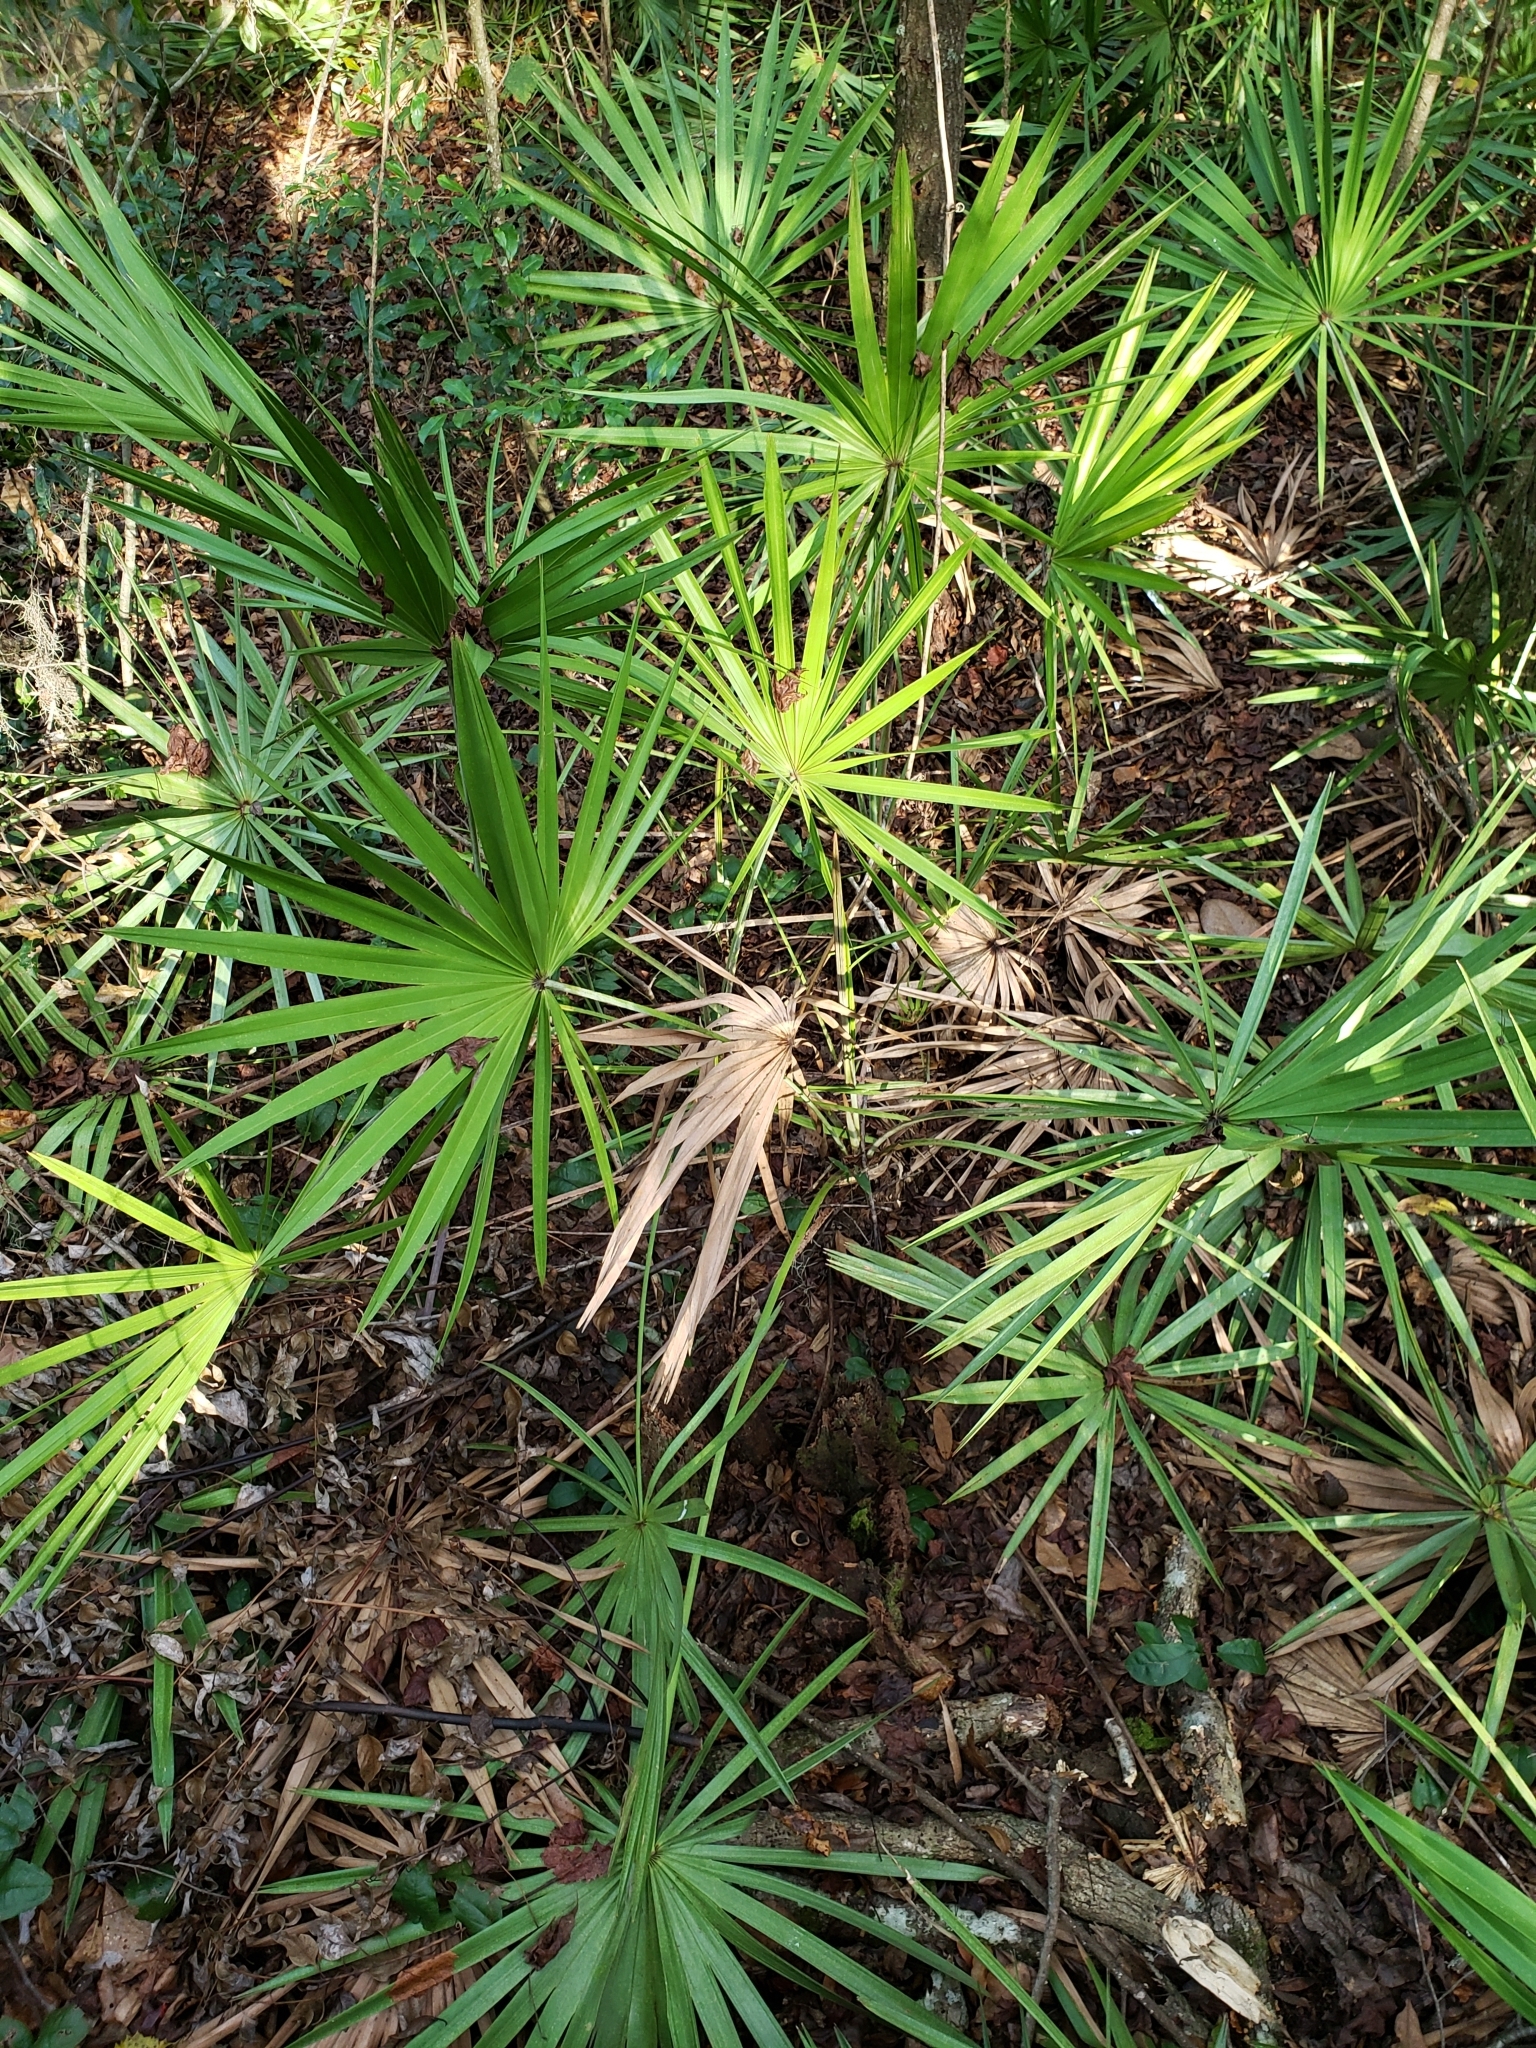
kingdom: Plantae
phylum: Tracheophyta
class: Liliopsida
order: Arecales
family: Arecaceae
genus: Serenoa
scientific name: Serenoa repens
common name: Saw-palmetto
